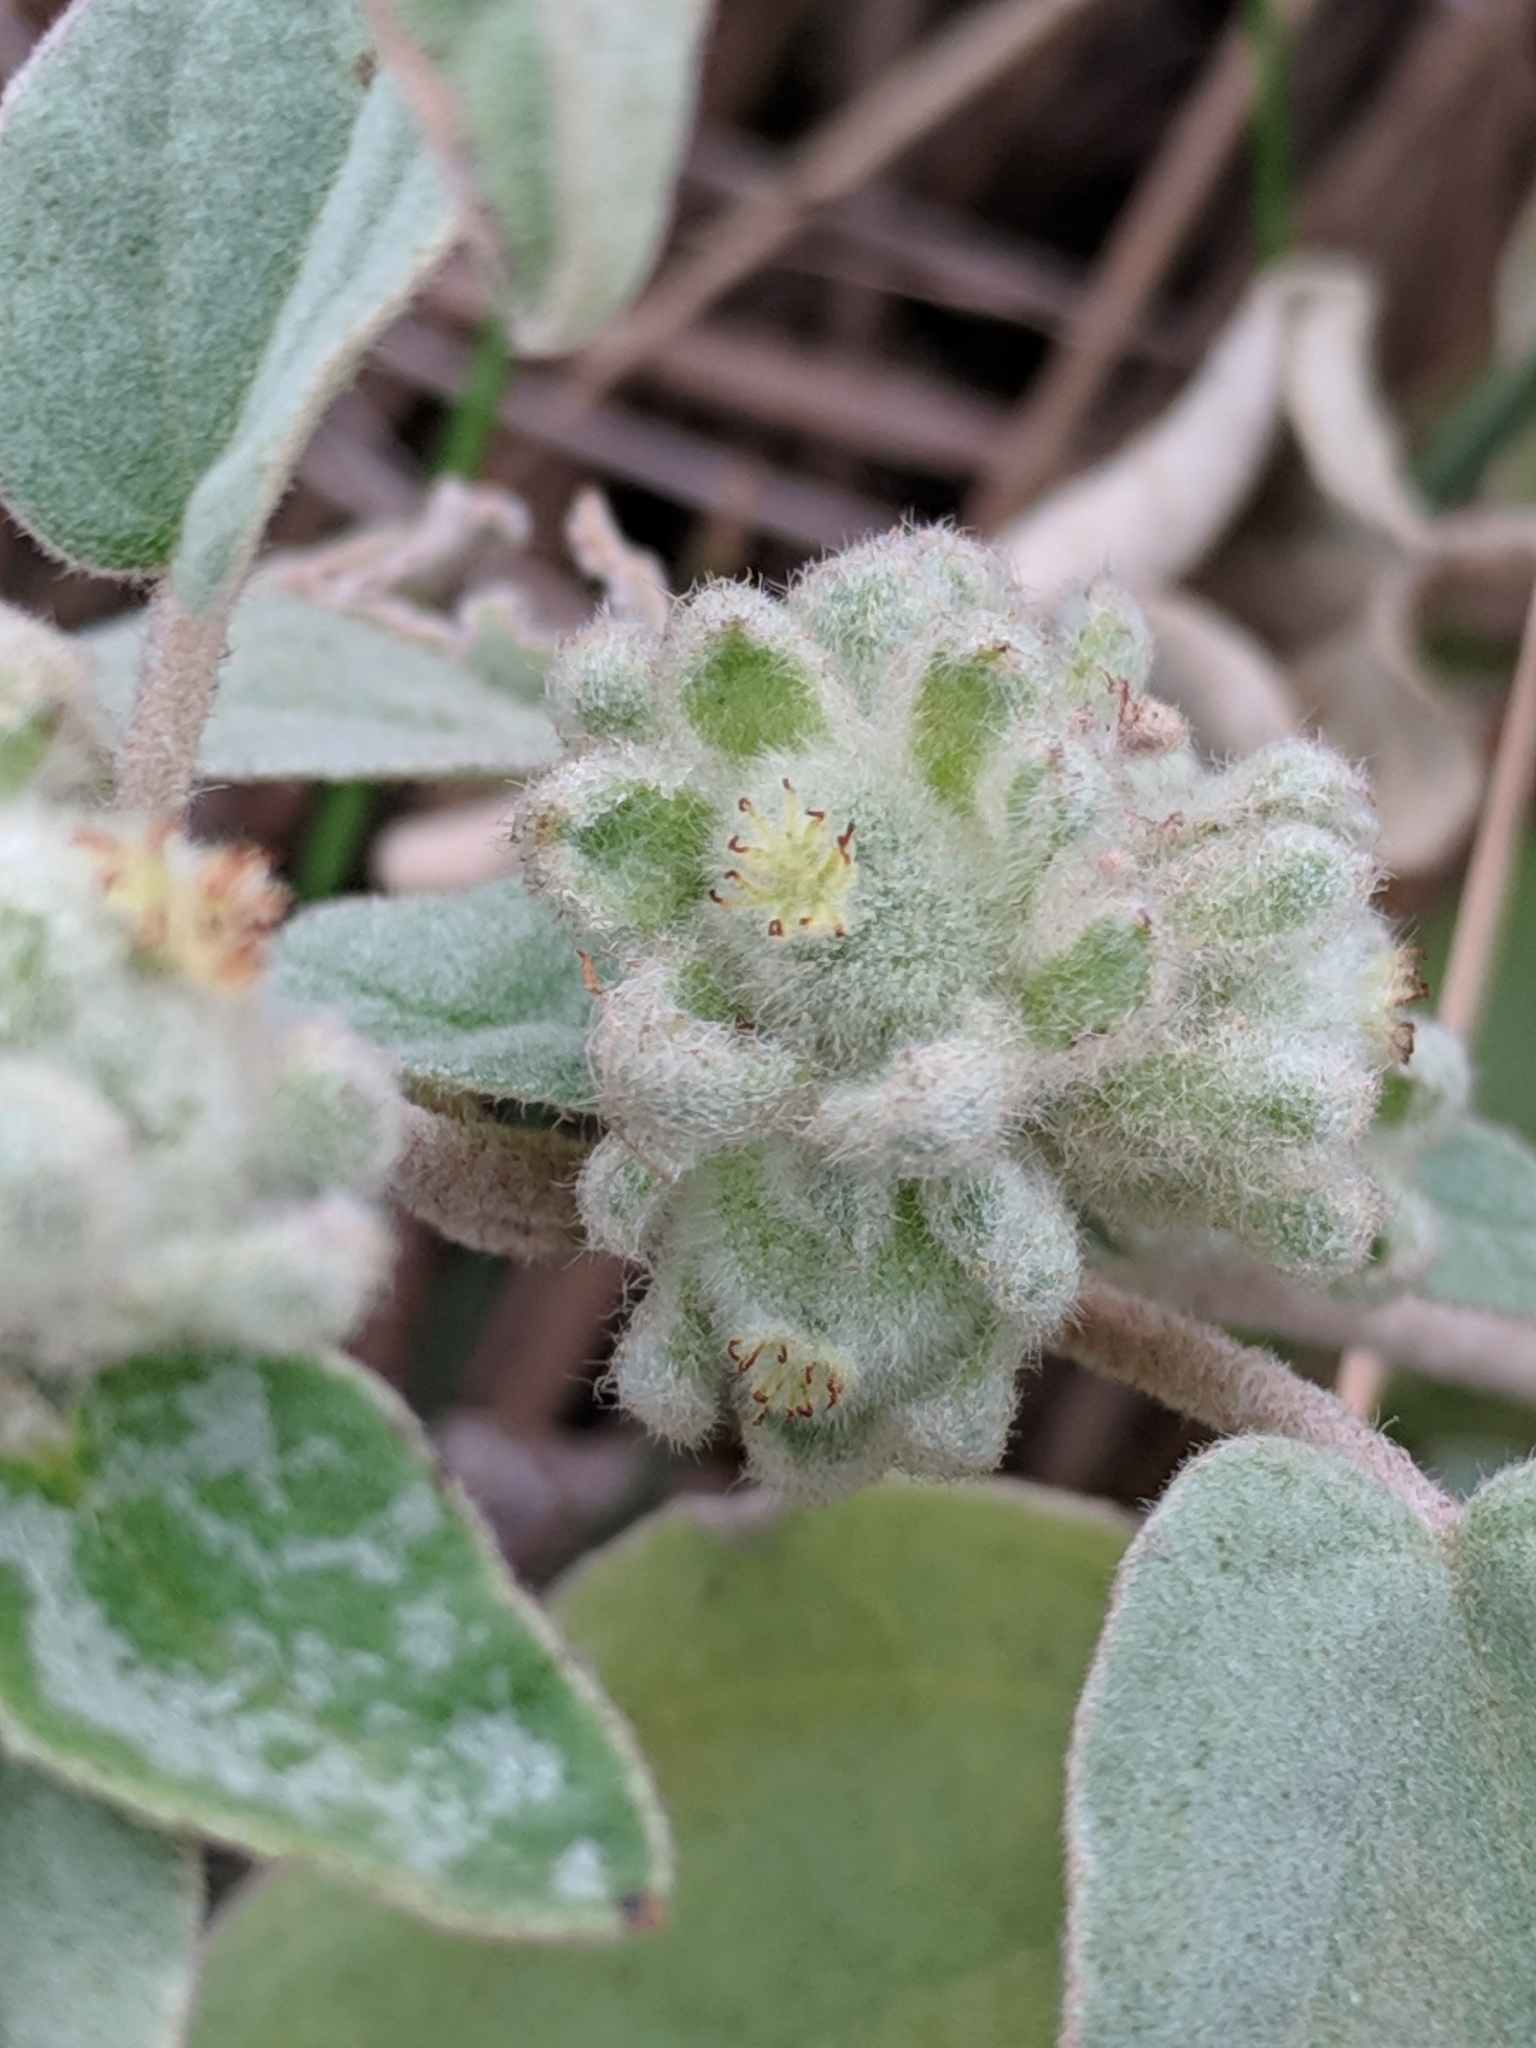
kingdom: Plantae
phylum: Tracheophyta
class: Magnoliopsida
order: Malpighiales
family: Euphorbiaceae
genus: Croton
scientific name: Croton heptalon
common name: Woolly croton
